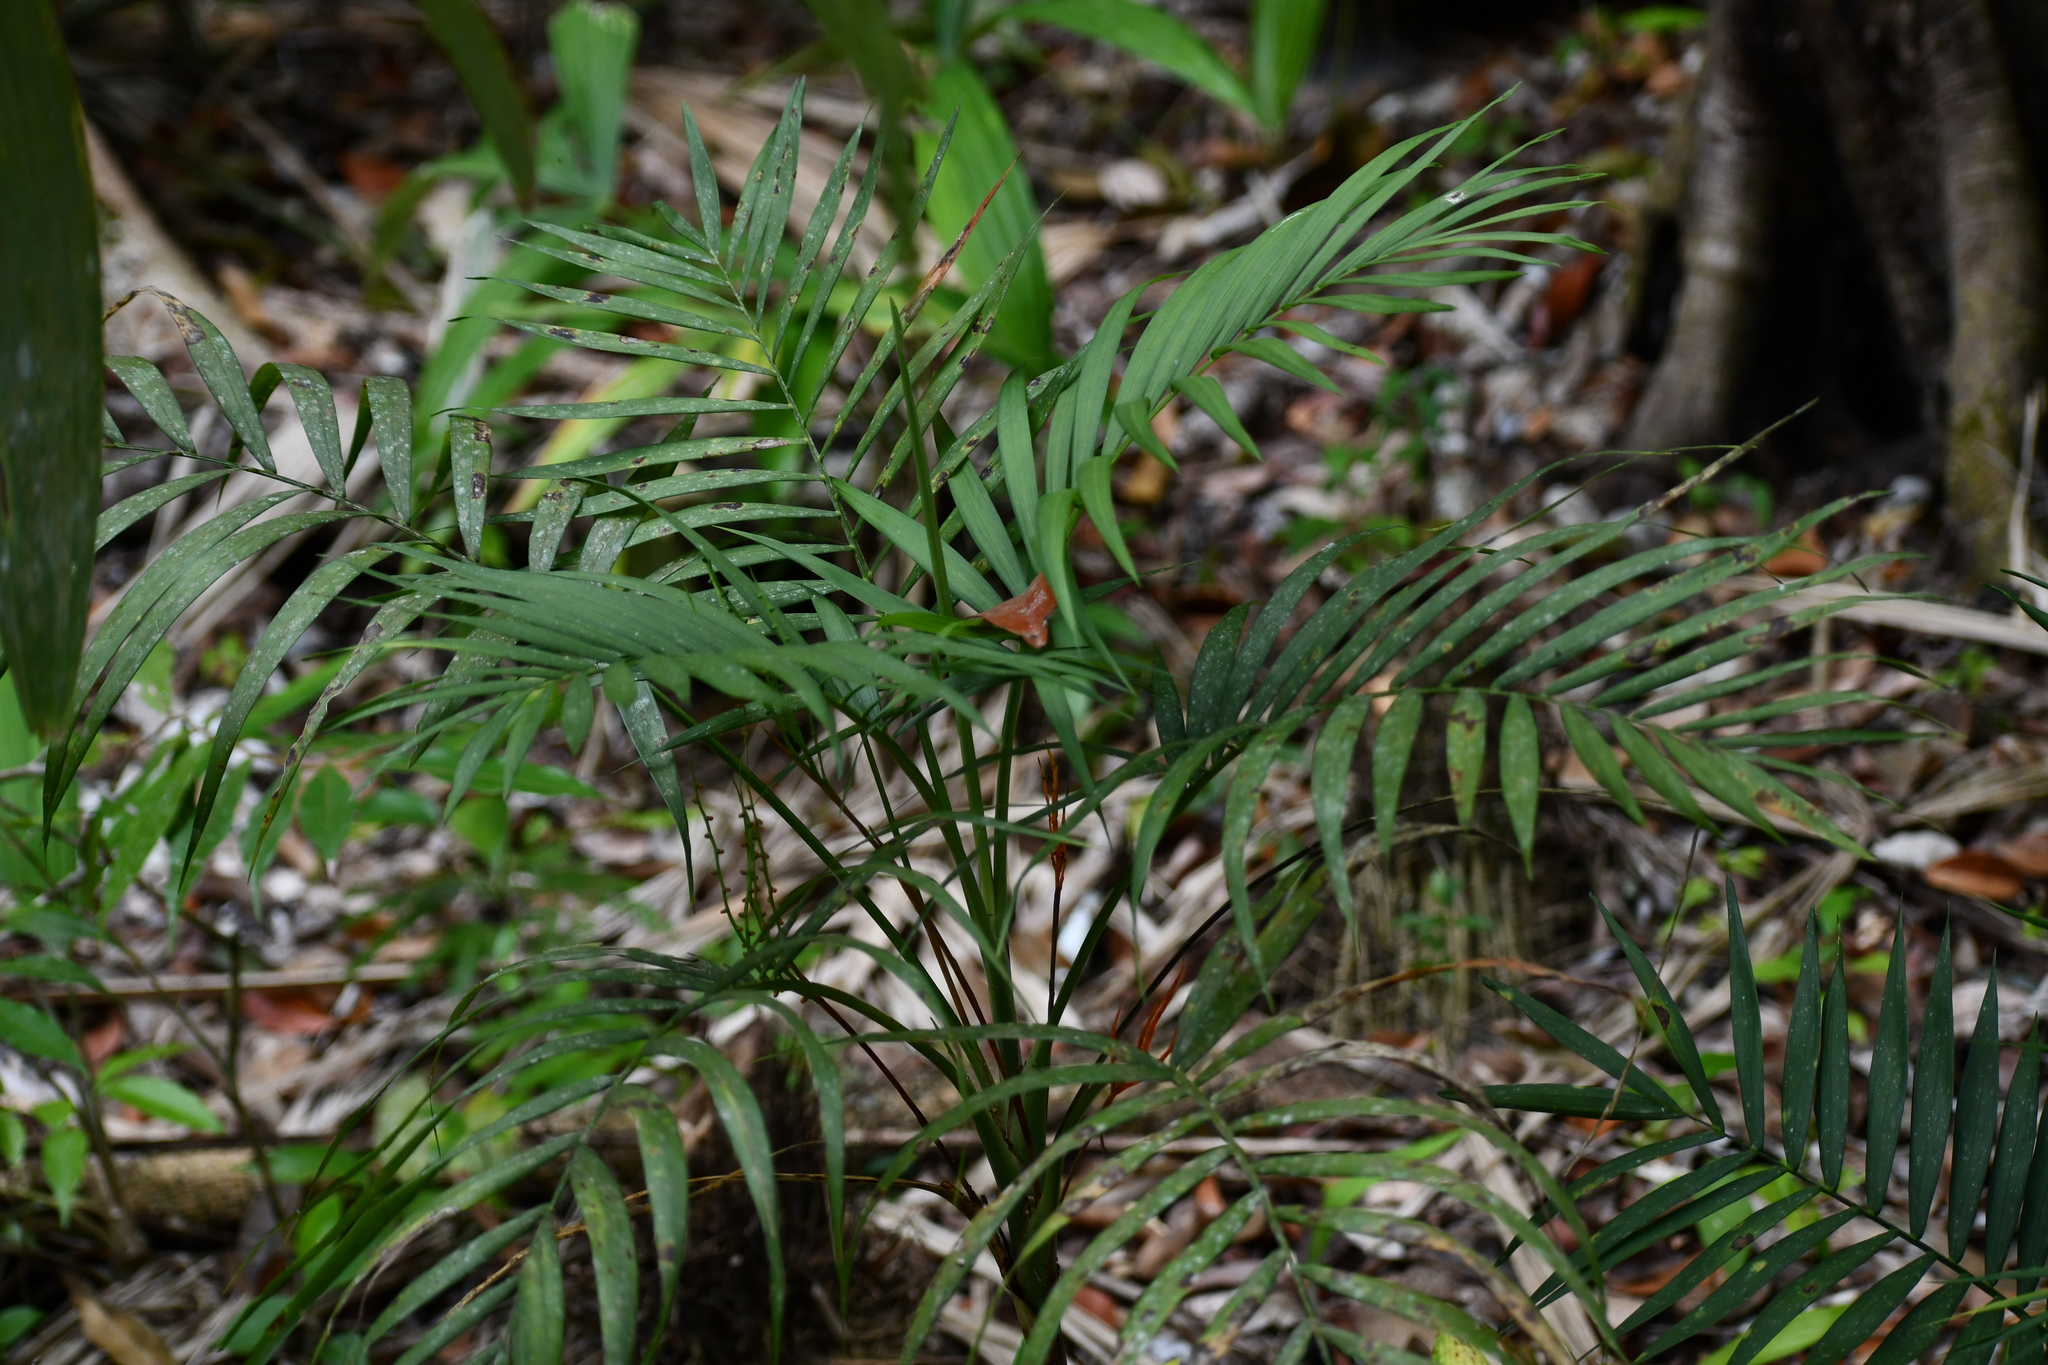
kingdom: Plantae
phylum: Tracheophyta
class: Liliopsida
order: Arecales
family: Arecaceae
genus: Chamaedorea
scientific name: Chamaedorea elegans
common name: Good-luck palm
